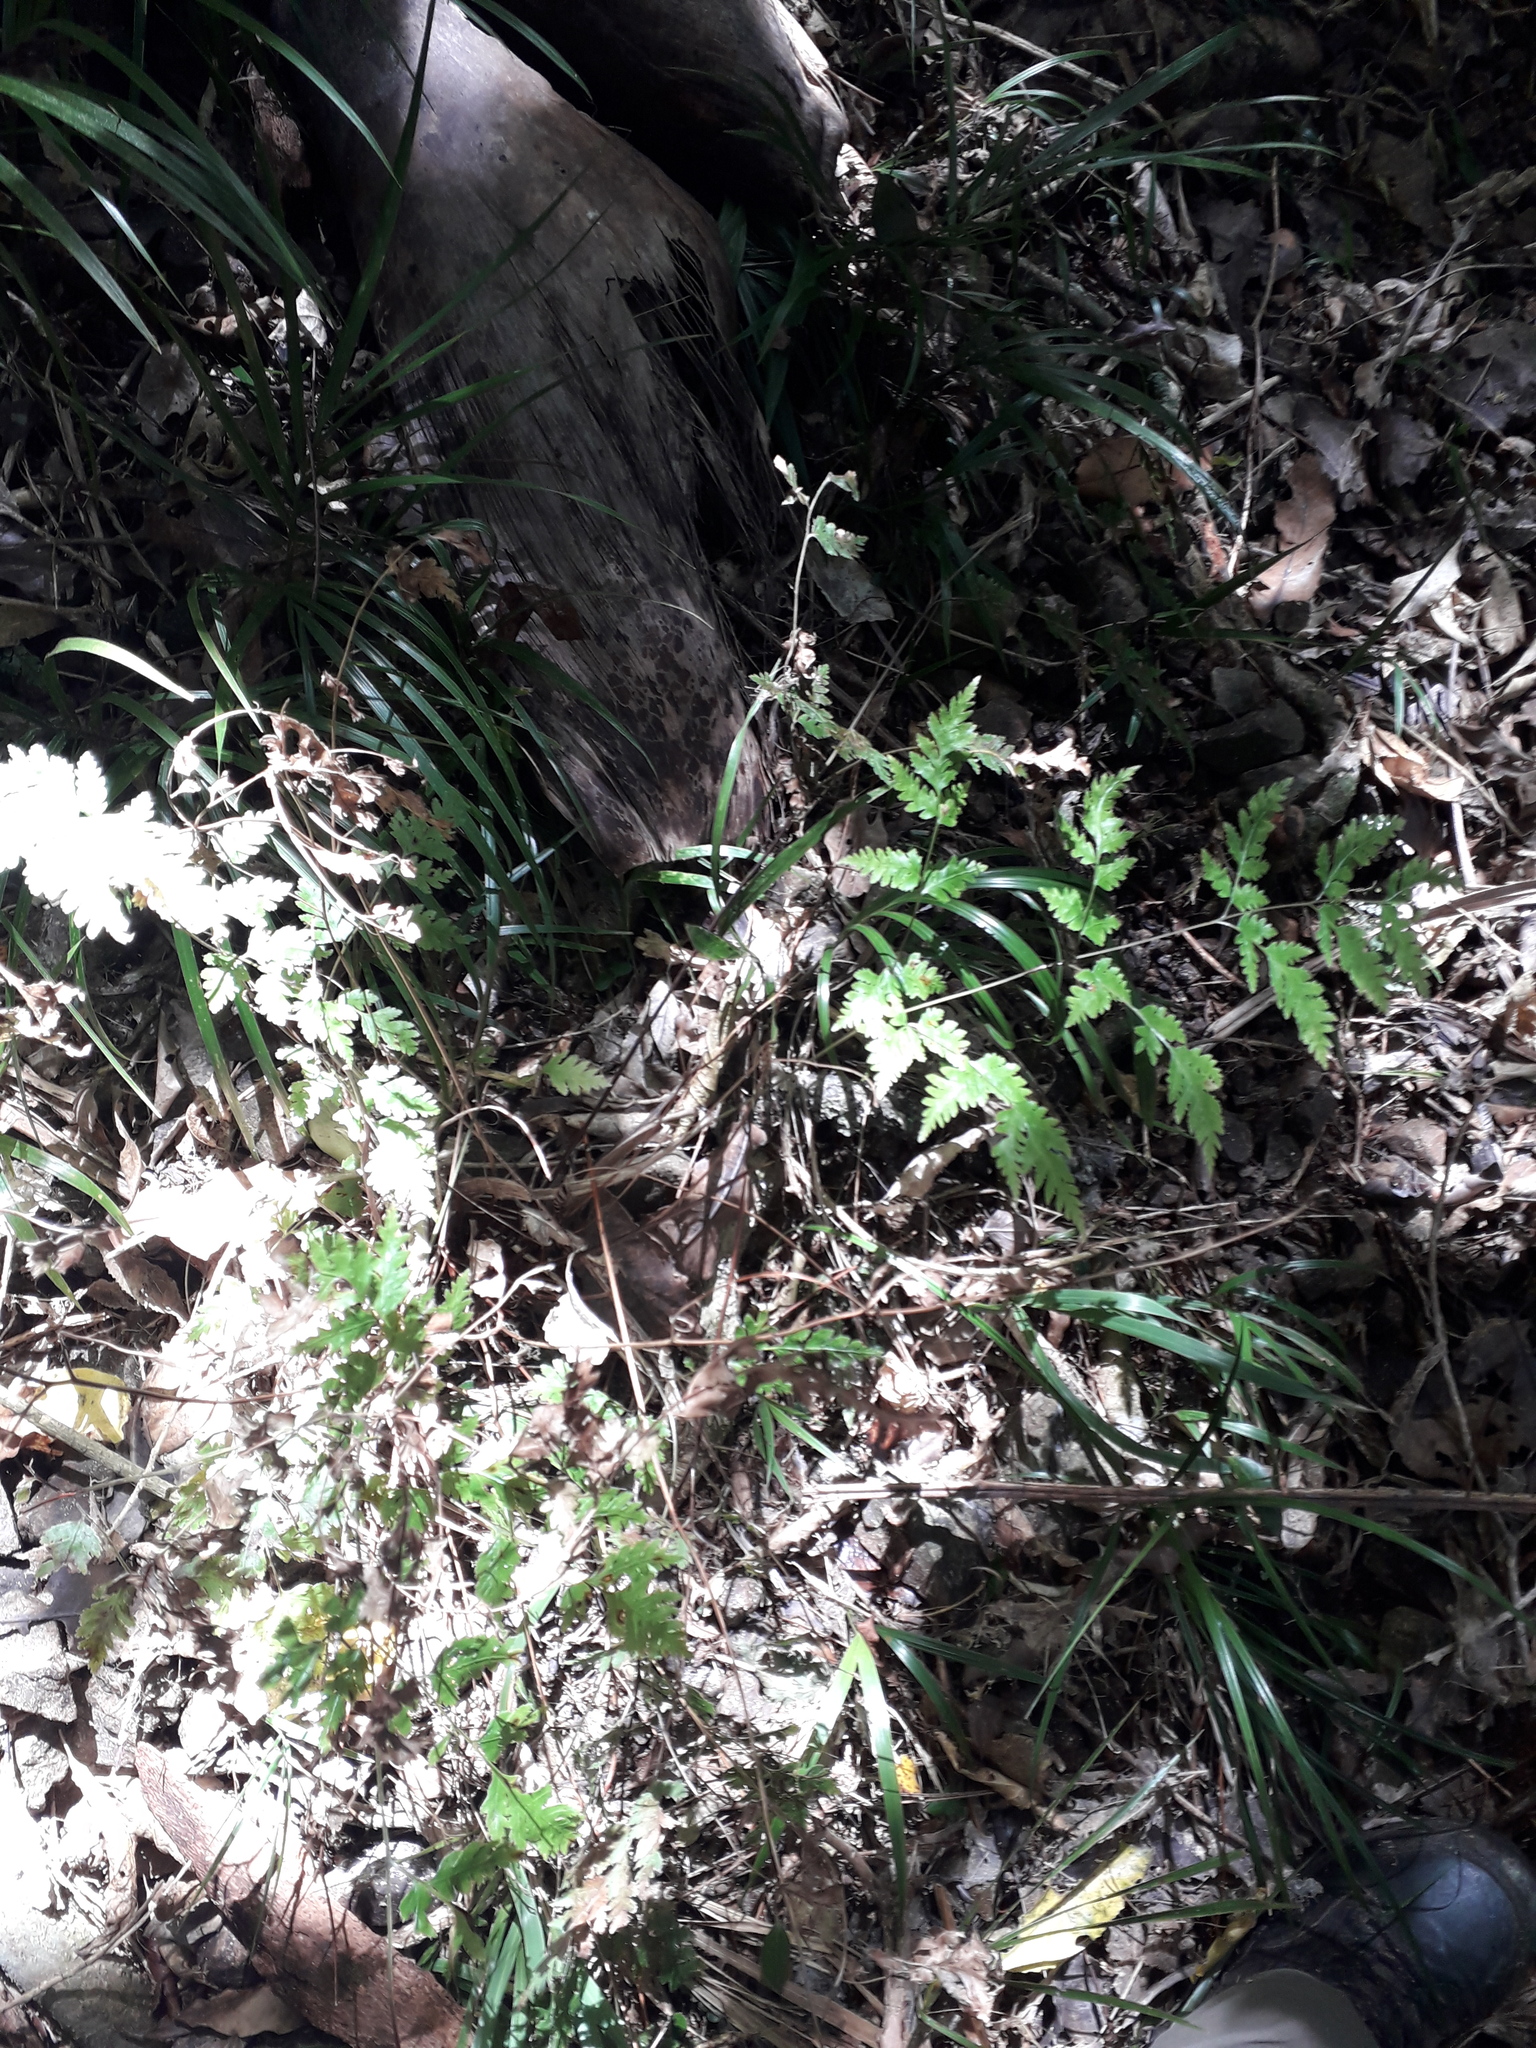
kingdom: Plantae
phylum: Tracheophyta
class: Polypodiopsida
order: Polypodiales
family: Pteridaceae
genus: Pteris
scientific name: Pteris macilenta
